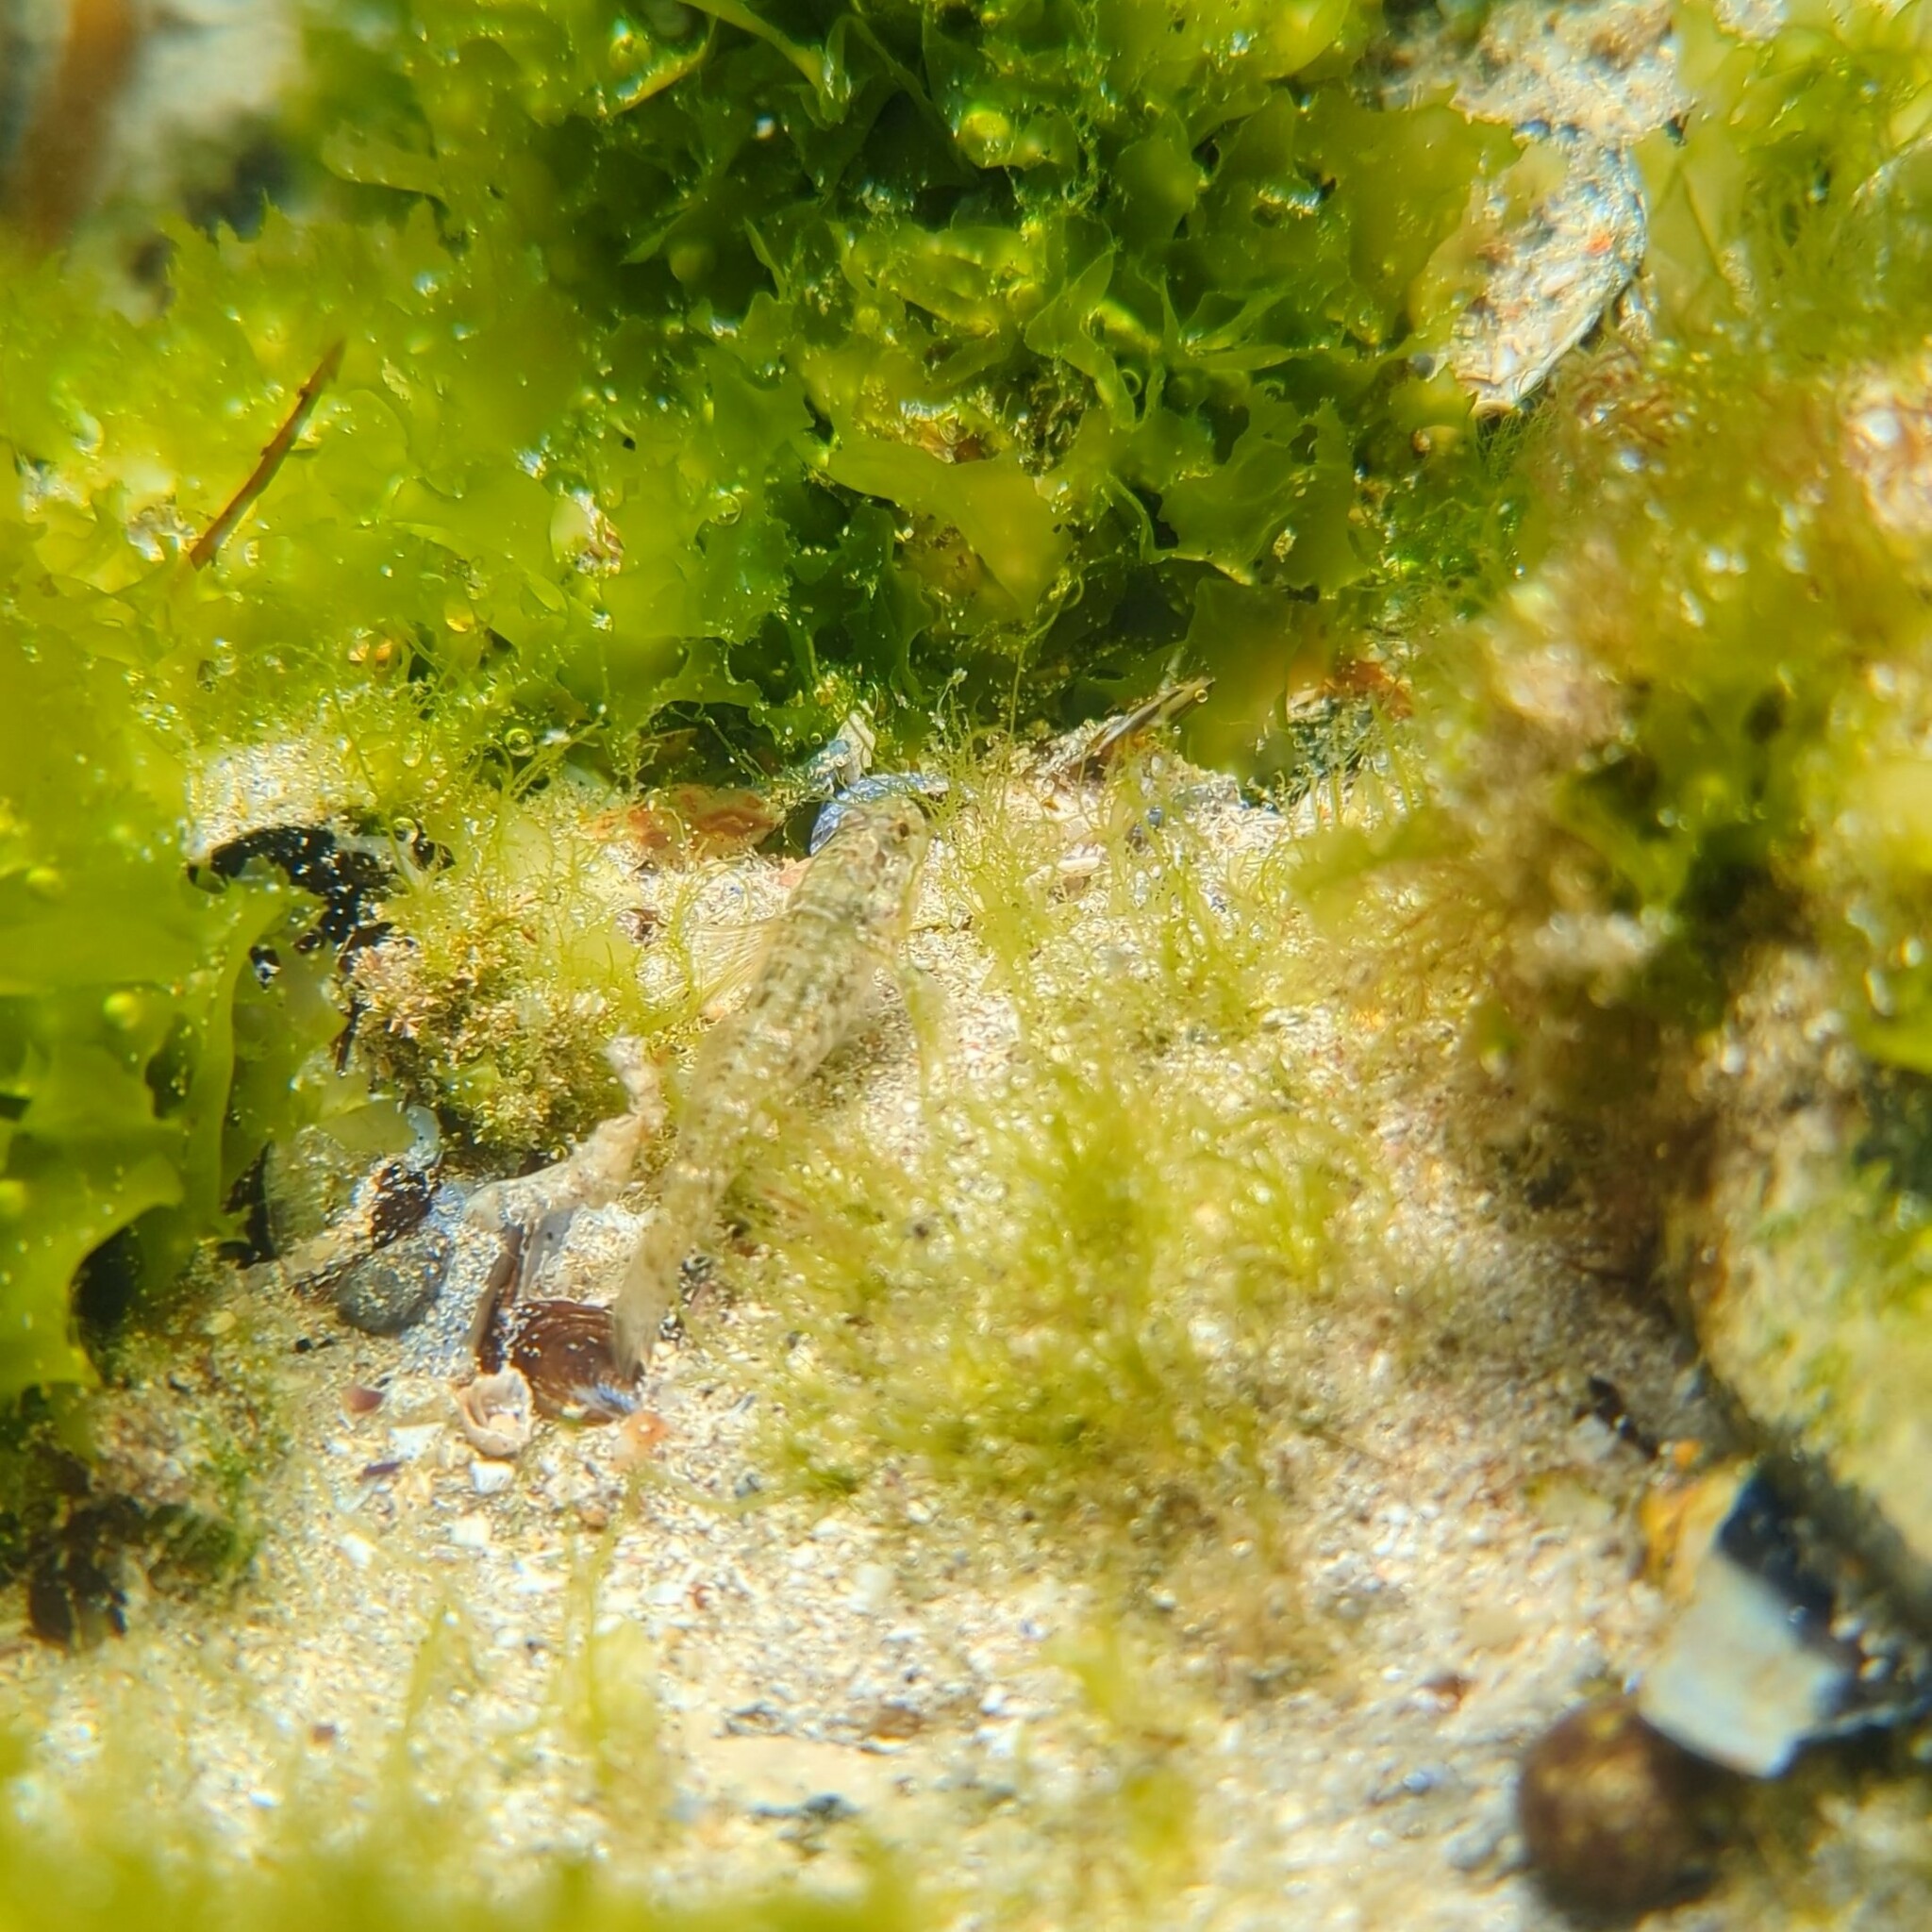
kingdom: Animalia
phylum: Chordata
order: Perciformes
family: Gobiidae
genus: Gobius
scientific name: Gobius paganellus
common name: Rock goby
